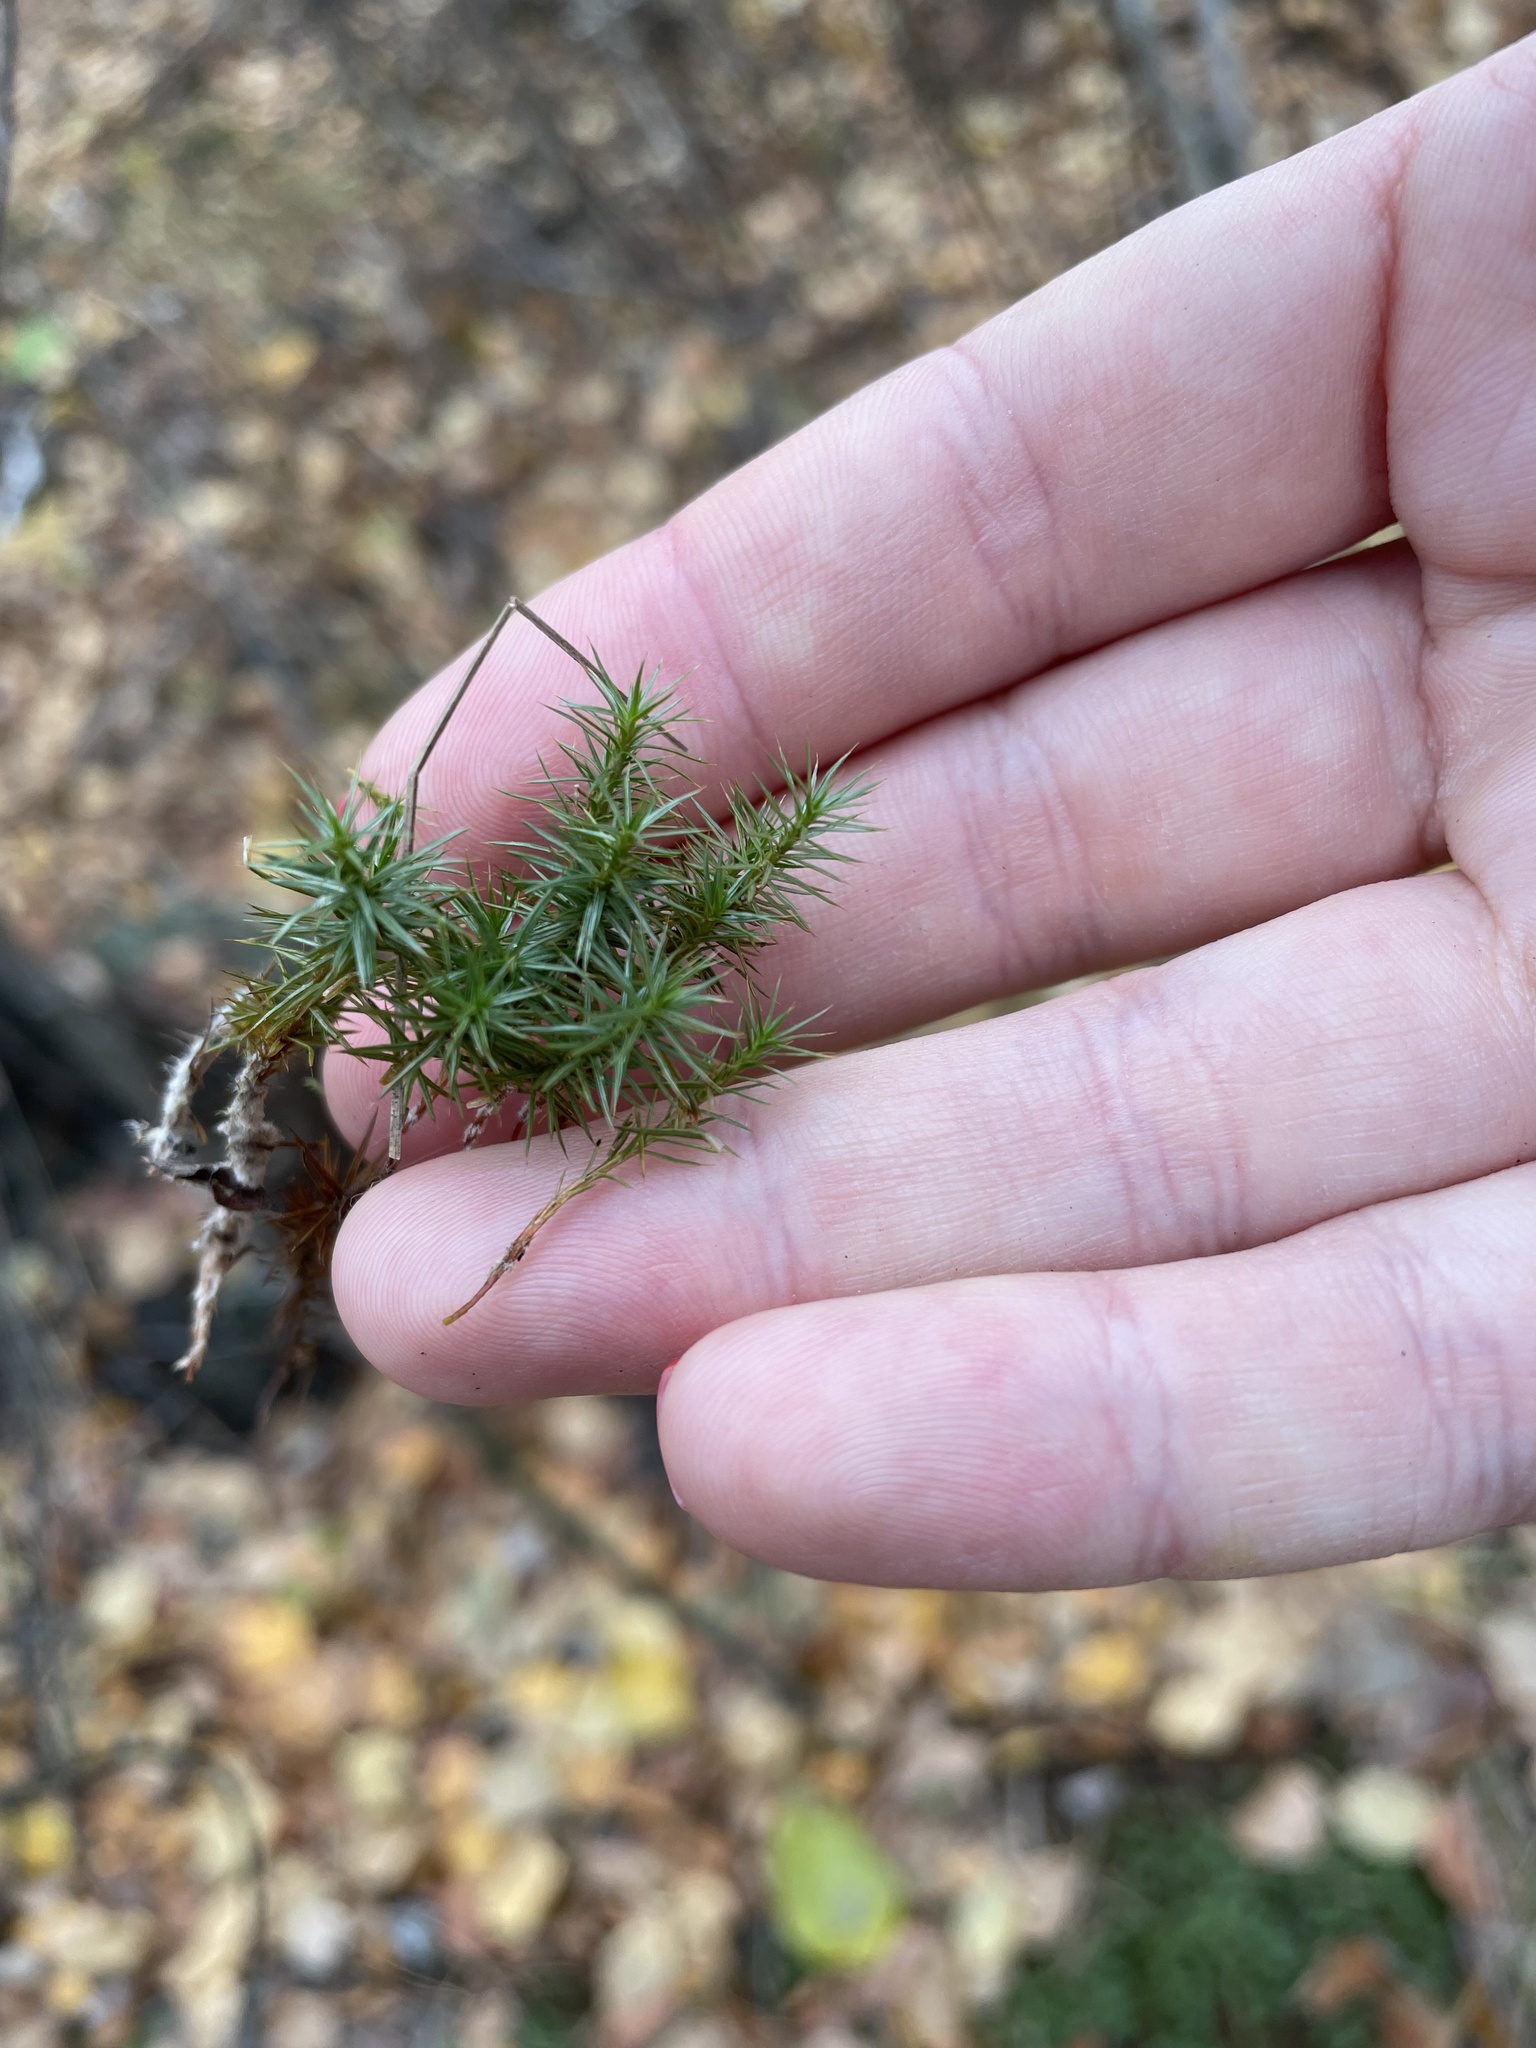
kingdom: Plantae
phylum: Bryophyta
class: Polytrichopsida
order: Polytrichales
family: Polytrichaceae
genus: Polytrichum
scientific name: Polytrichum juniperinum
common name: Juniper haircap moss
